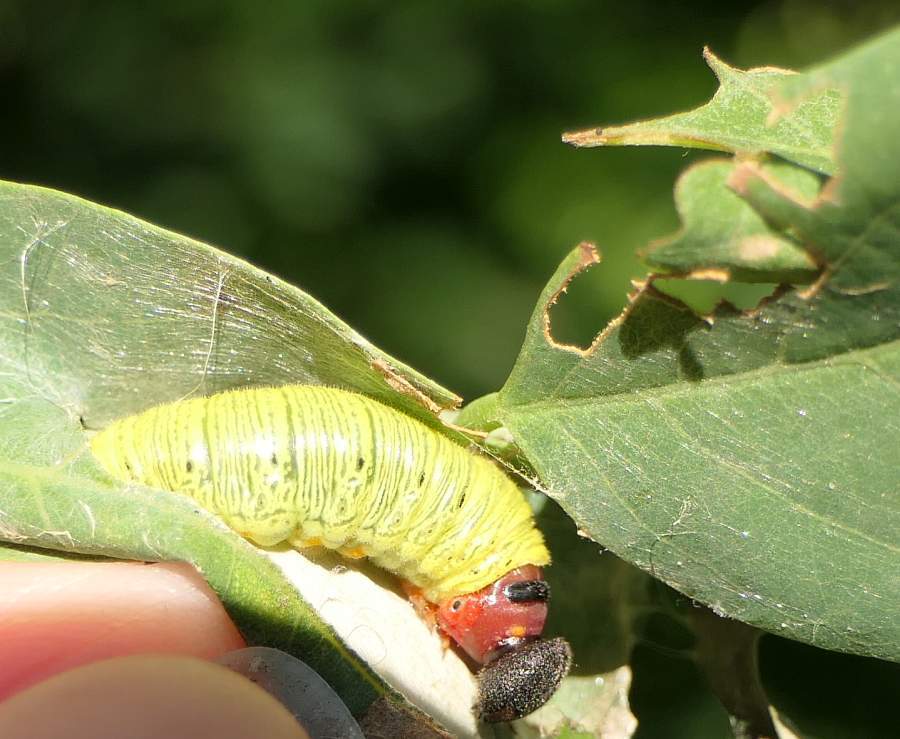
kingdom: Animalia
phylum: Arthropoda
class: Insecta
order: Lepidoptera
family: Hesperiidae
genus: Epargyreus
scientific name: Epargyreus clarus
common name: Silver-spotted skipper
